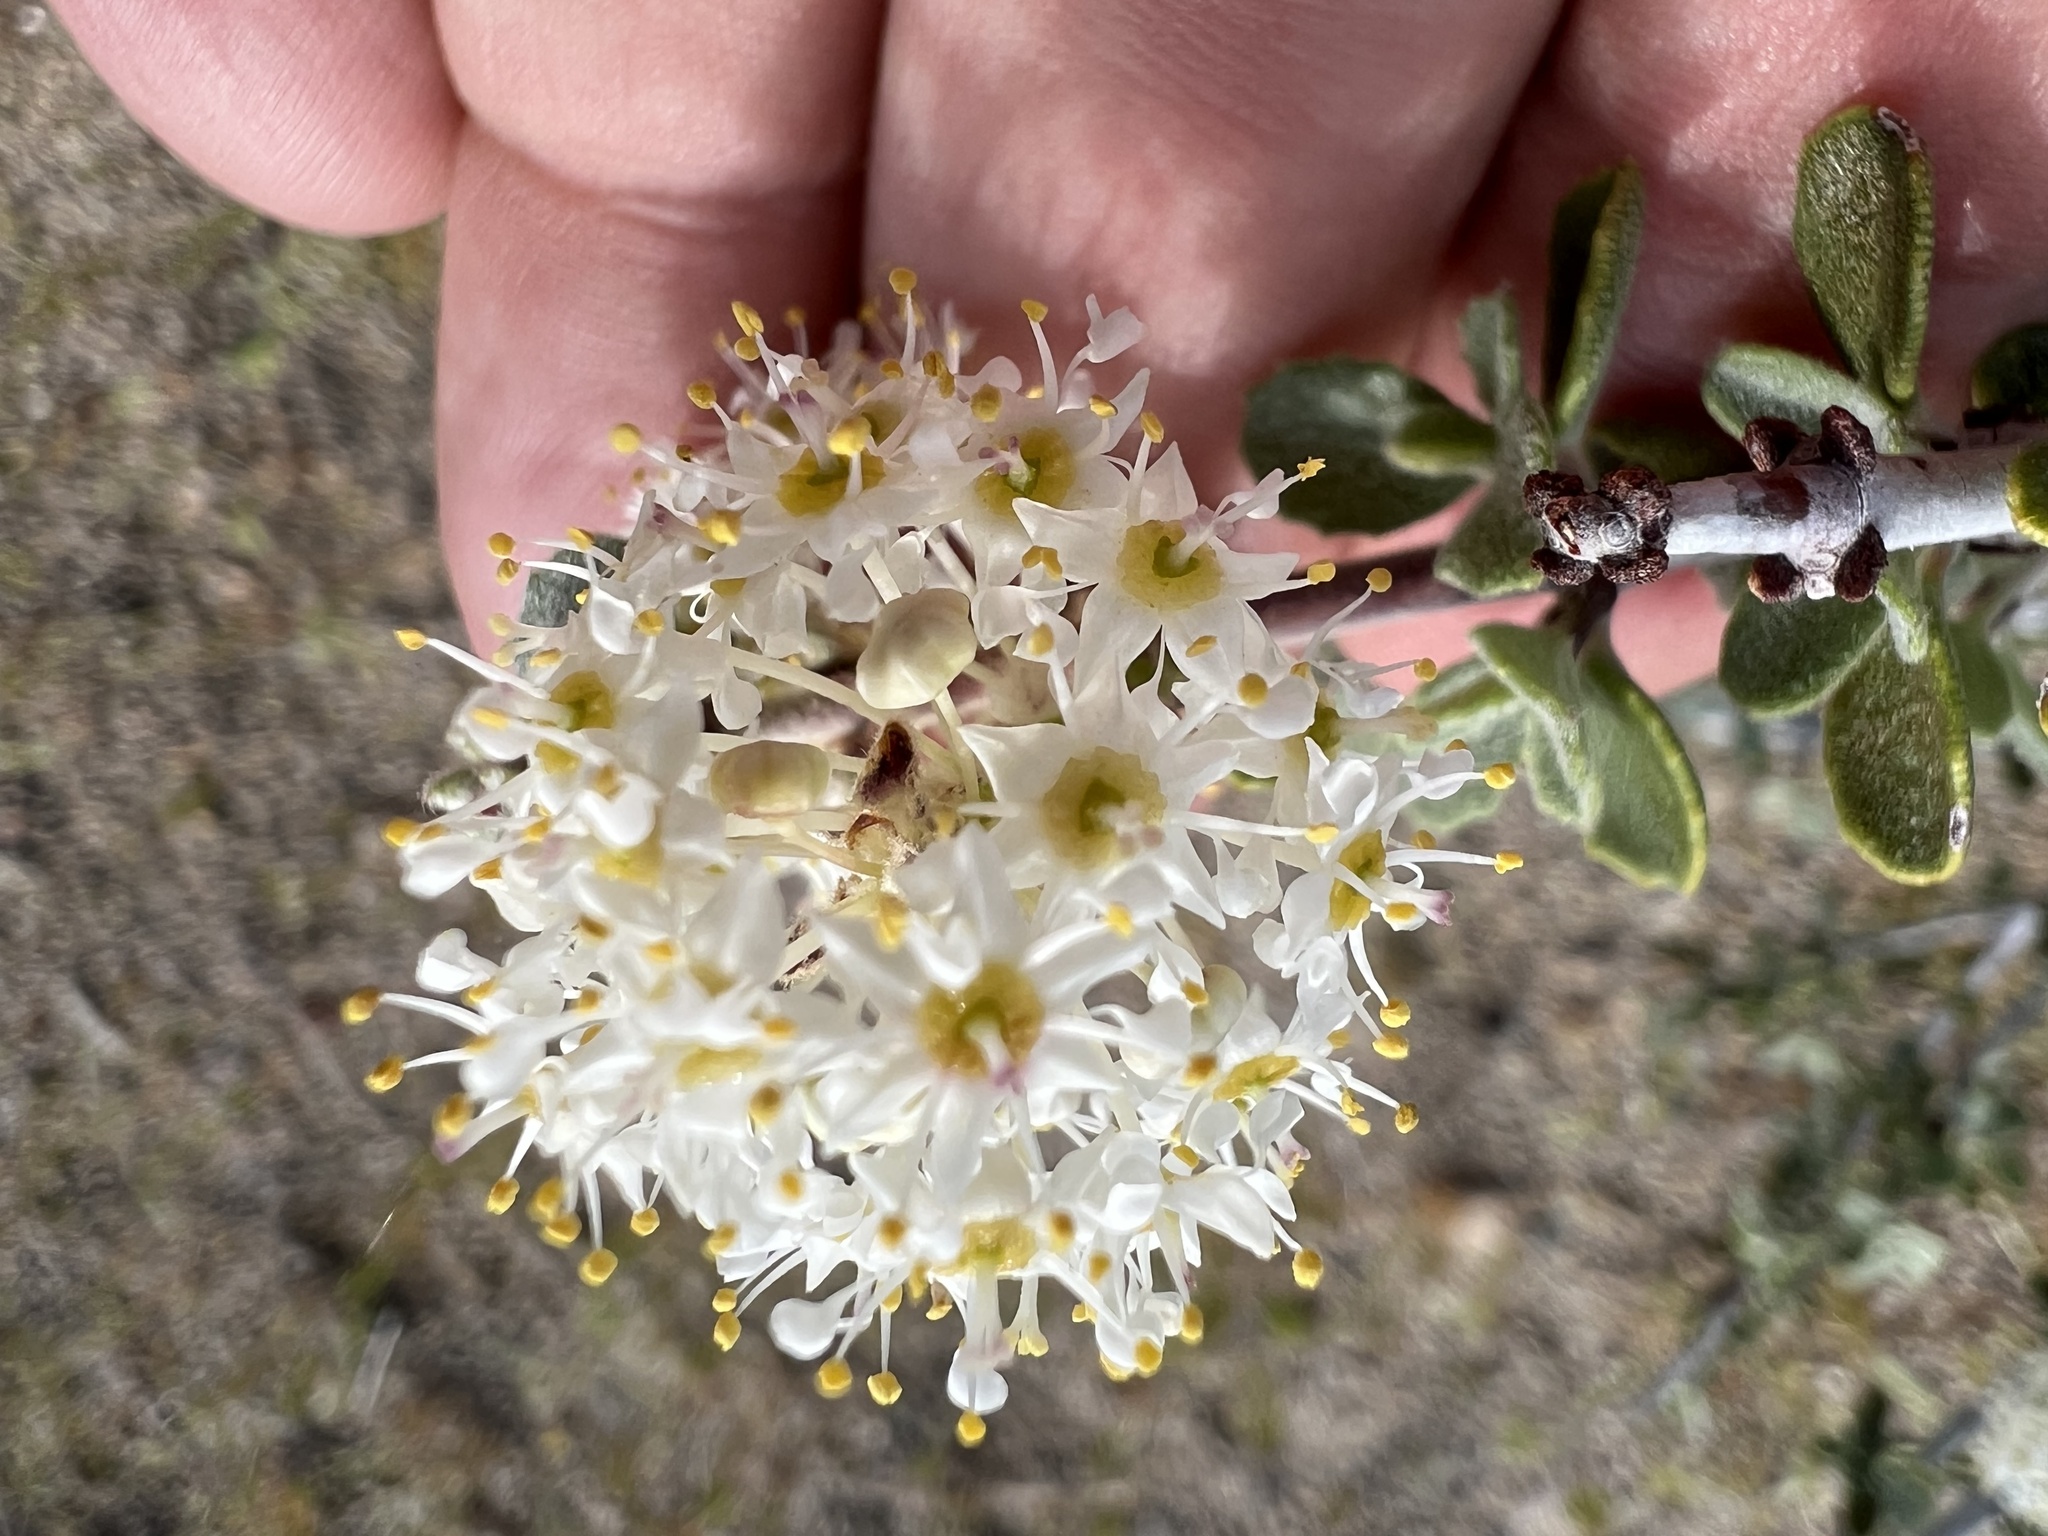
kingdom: Plantae
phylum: Tracheophyta
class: Magnoliopsida
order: Rosales
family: Rhamnaceae
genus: Ceanothus
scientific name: Ceanothus pauciflorus
